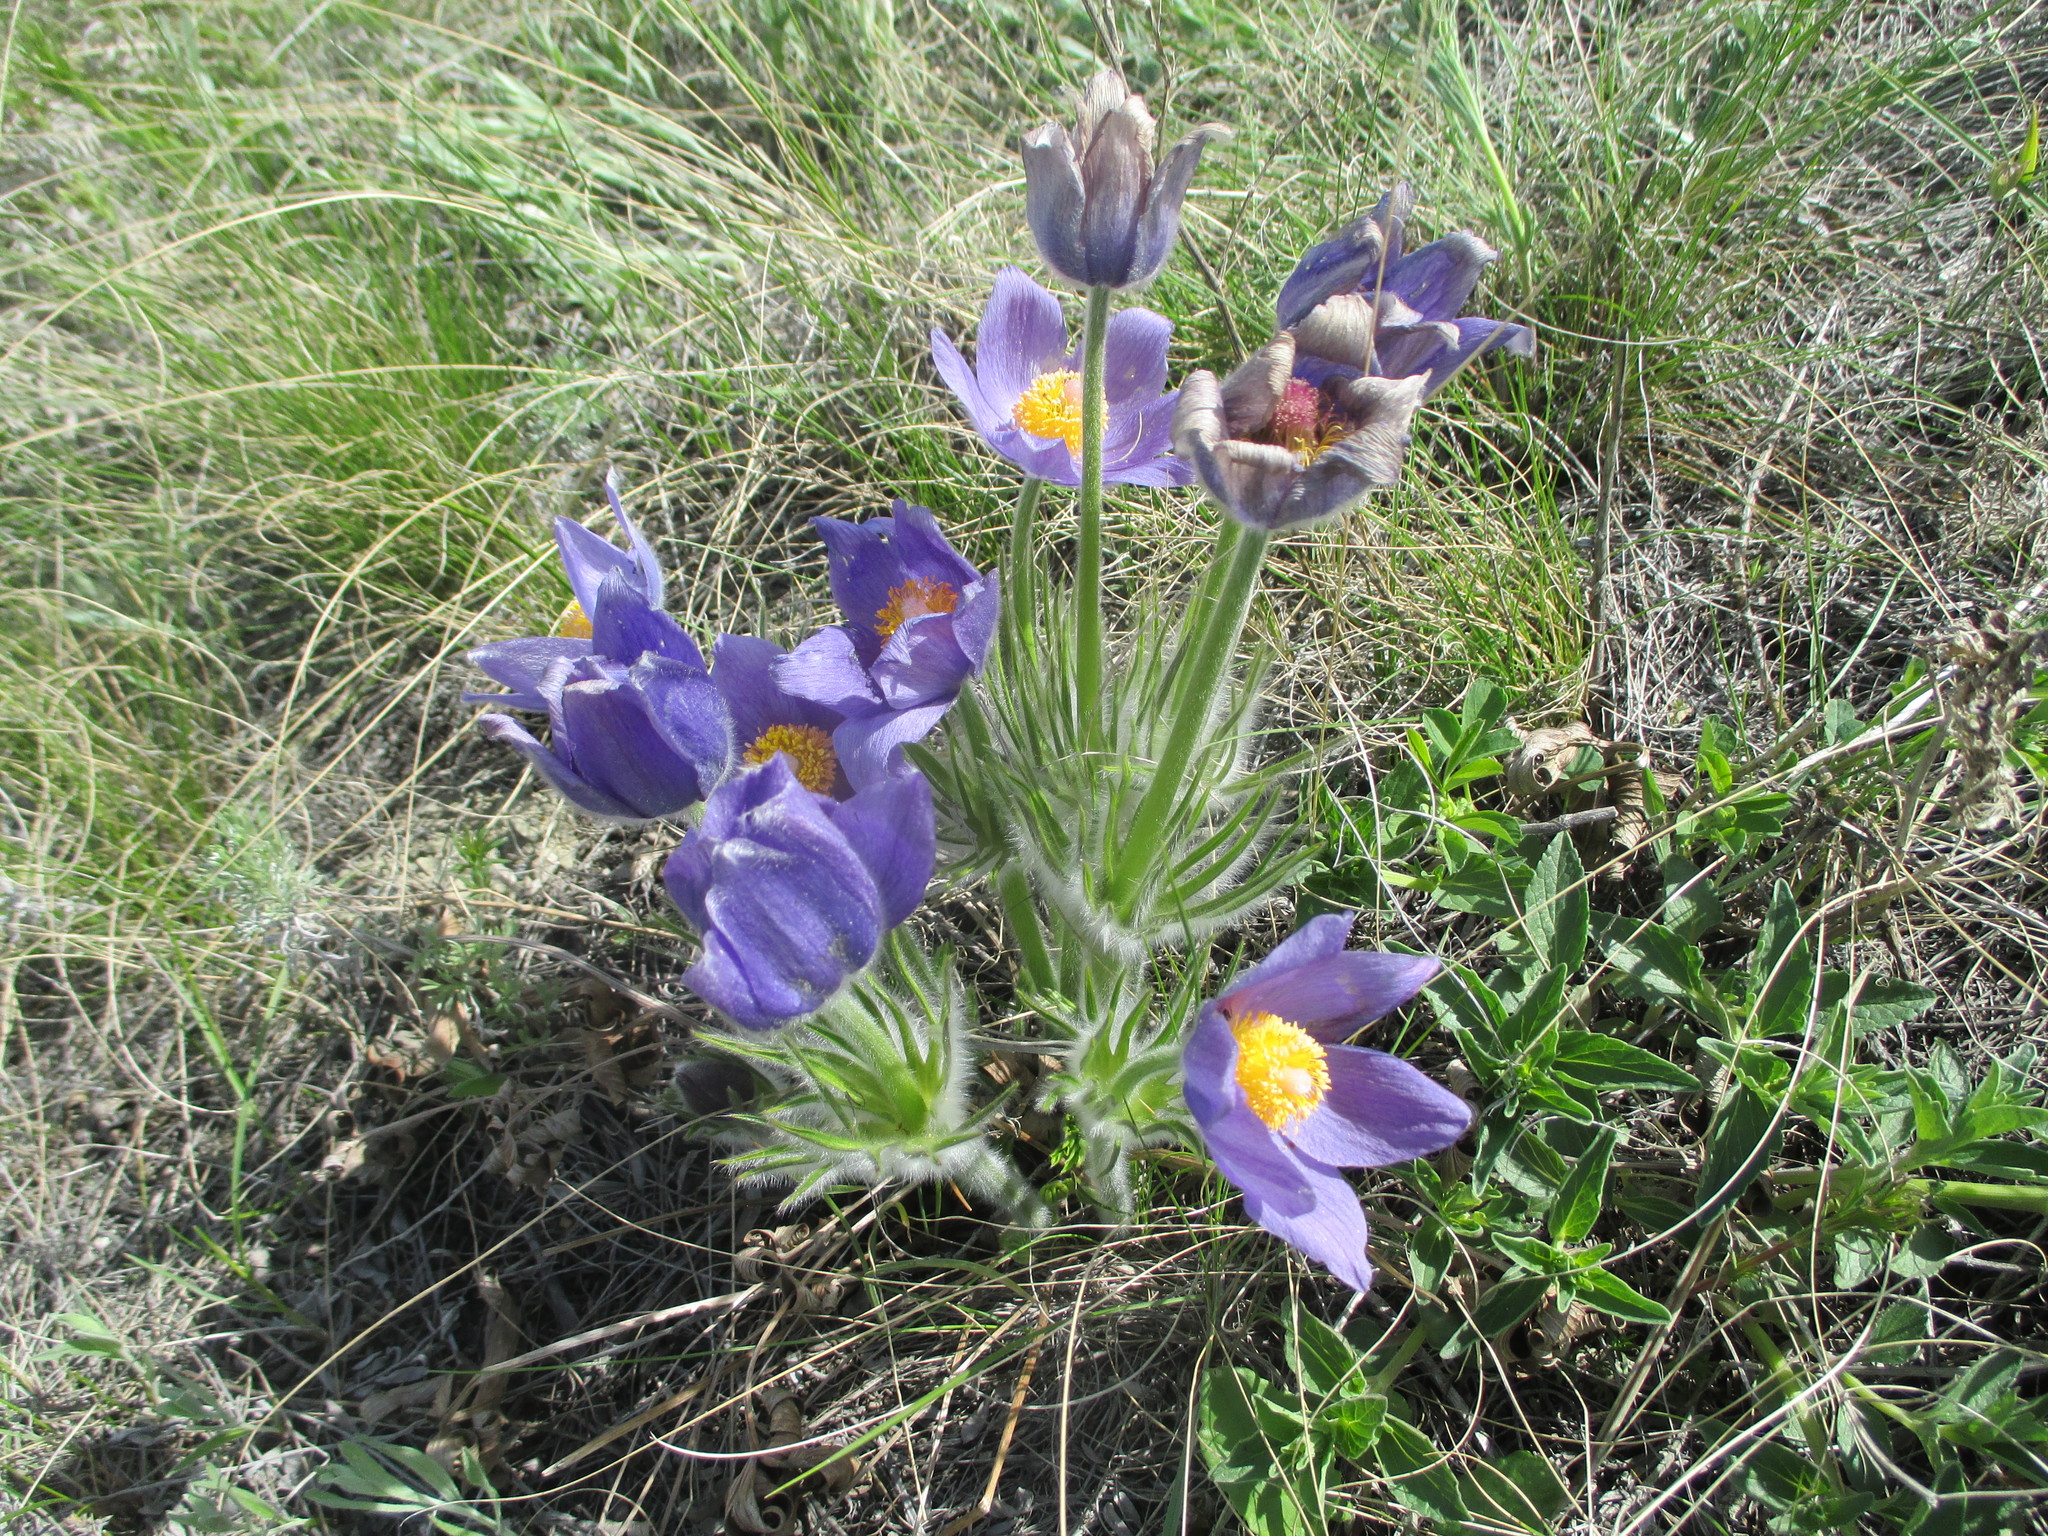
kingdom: Plantae
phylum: Tracheophyta
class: Magnoliopsida
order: Ranunculales
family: Ranunculaceae
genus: Pulsatilla
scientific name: Pulsatilla patens
